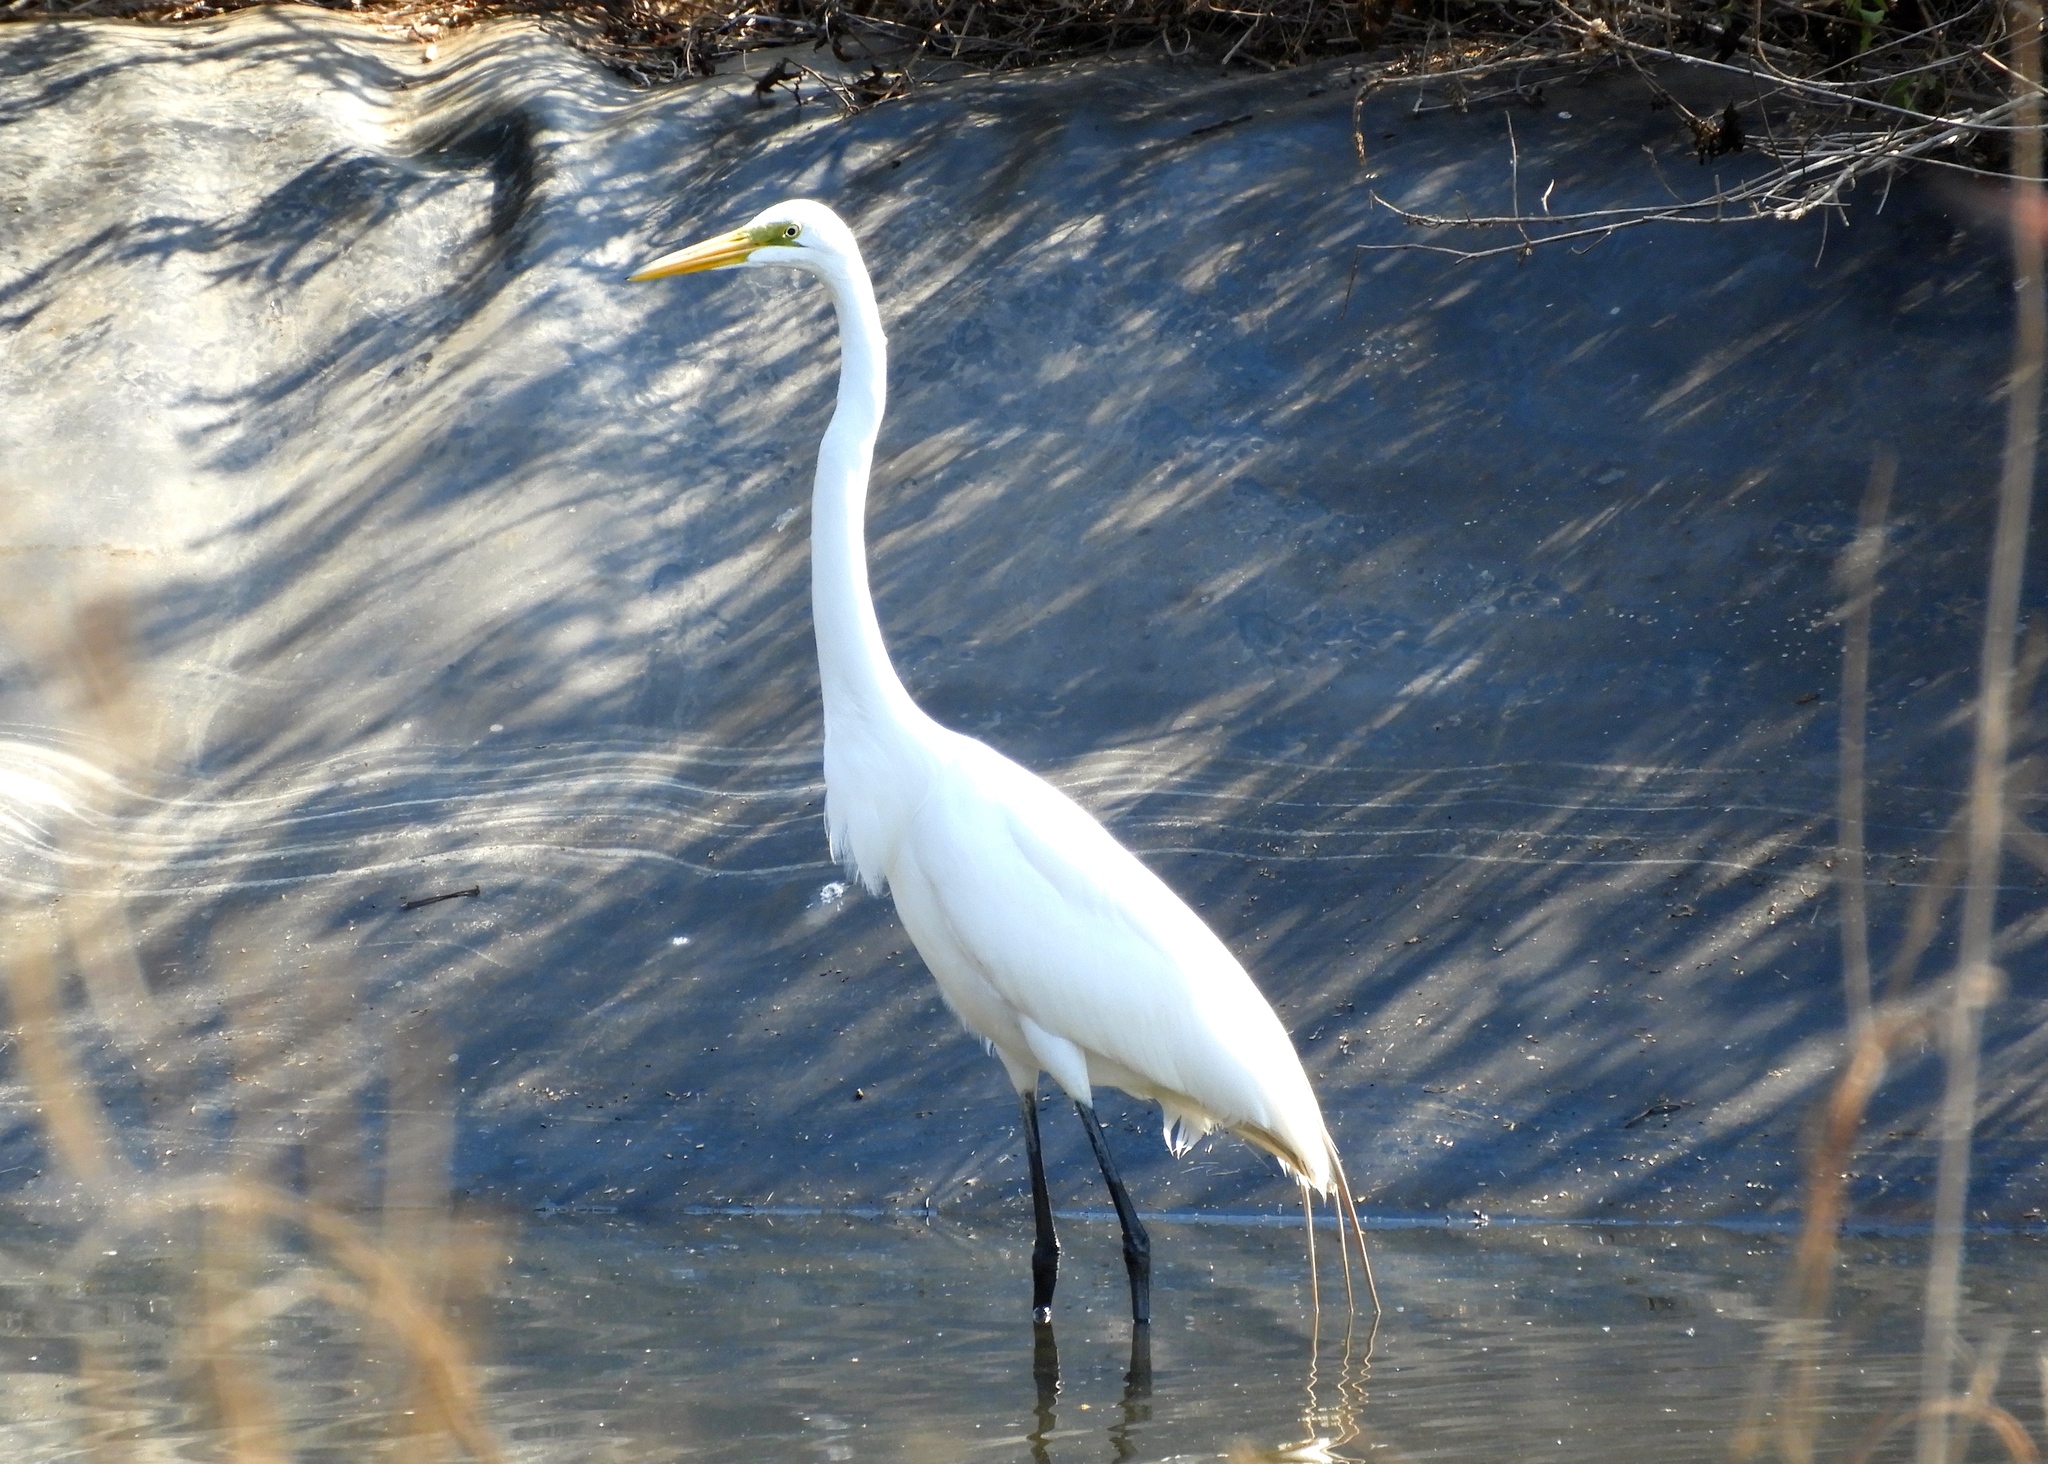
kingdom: Animalia
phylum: Chordata
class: Aves
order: Pelecaniformes
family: Ardeidae
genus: Ardea
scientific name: Ardea alba
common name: Great egret
